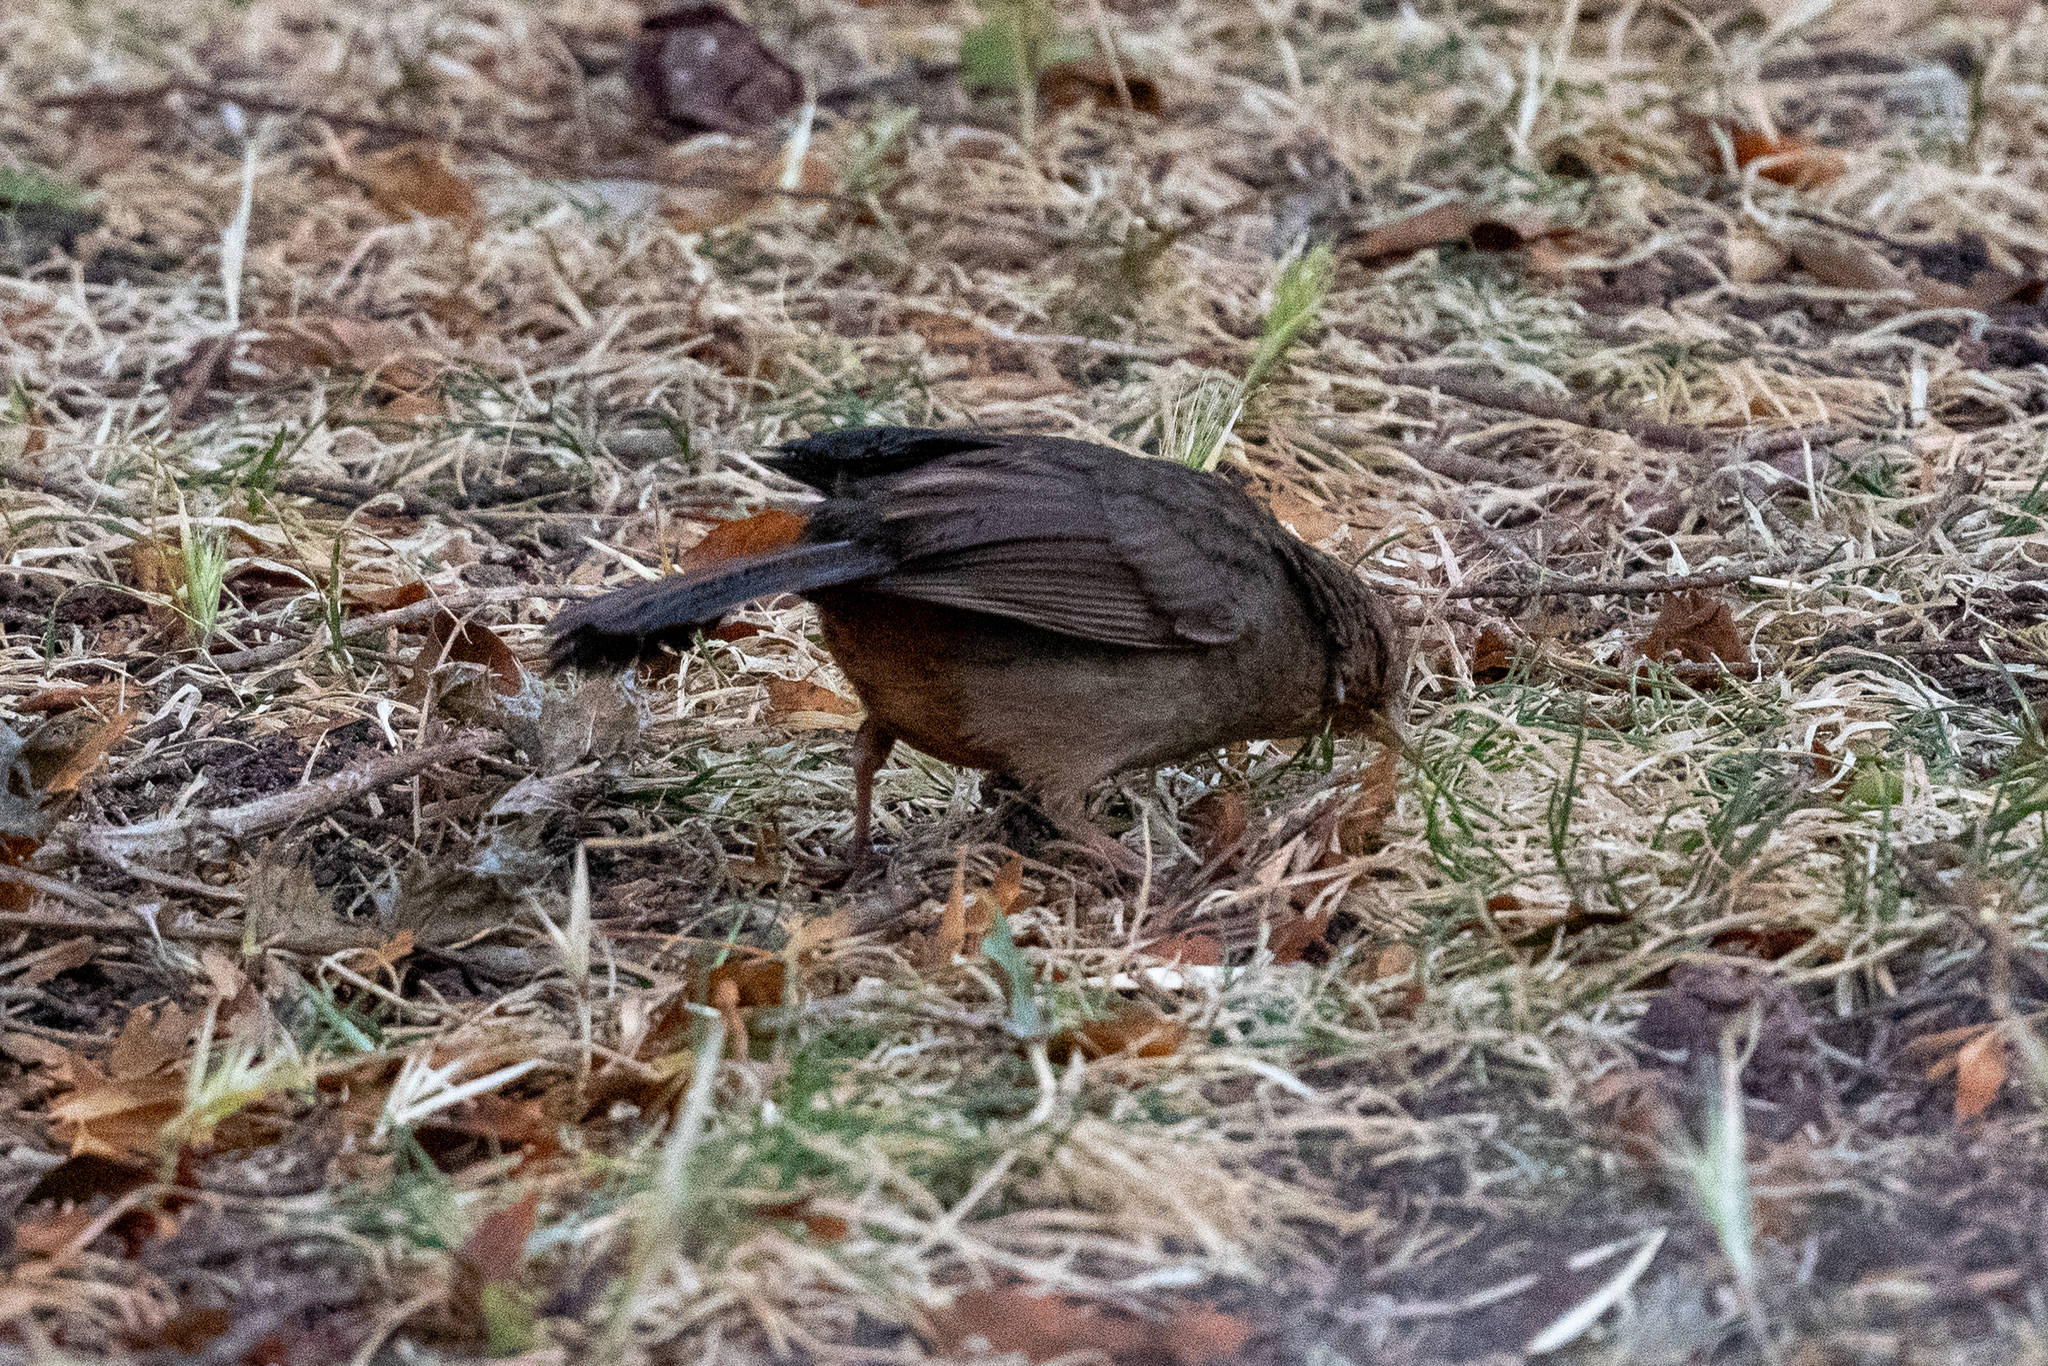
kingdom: Animalia
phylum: Chordata
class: Aves
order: Passeriformes
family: Passerellidae
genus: Melozone
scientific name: Melozone crissalis
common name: California towhee
